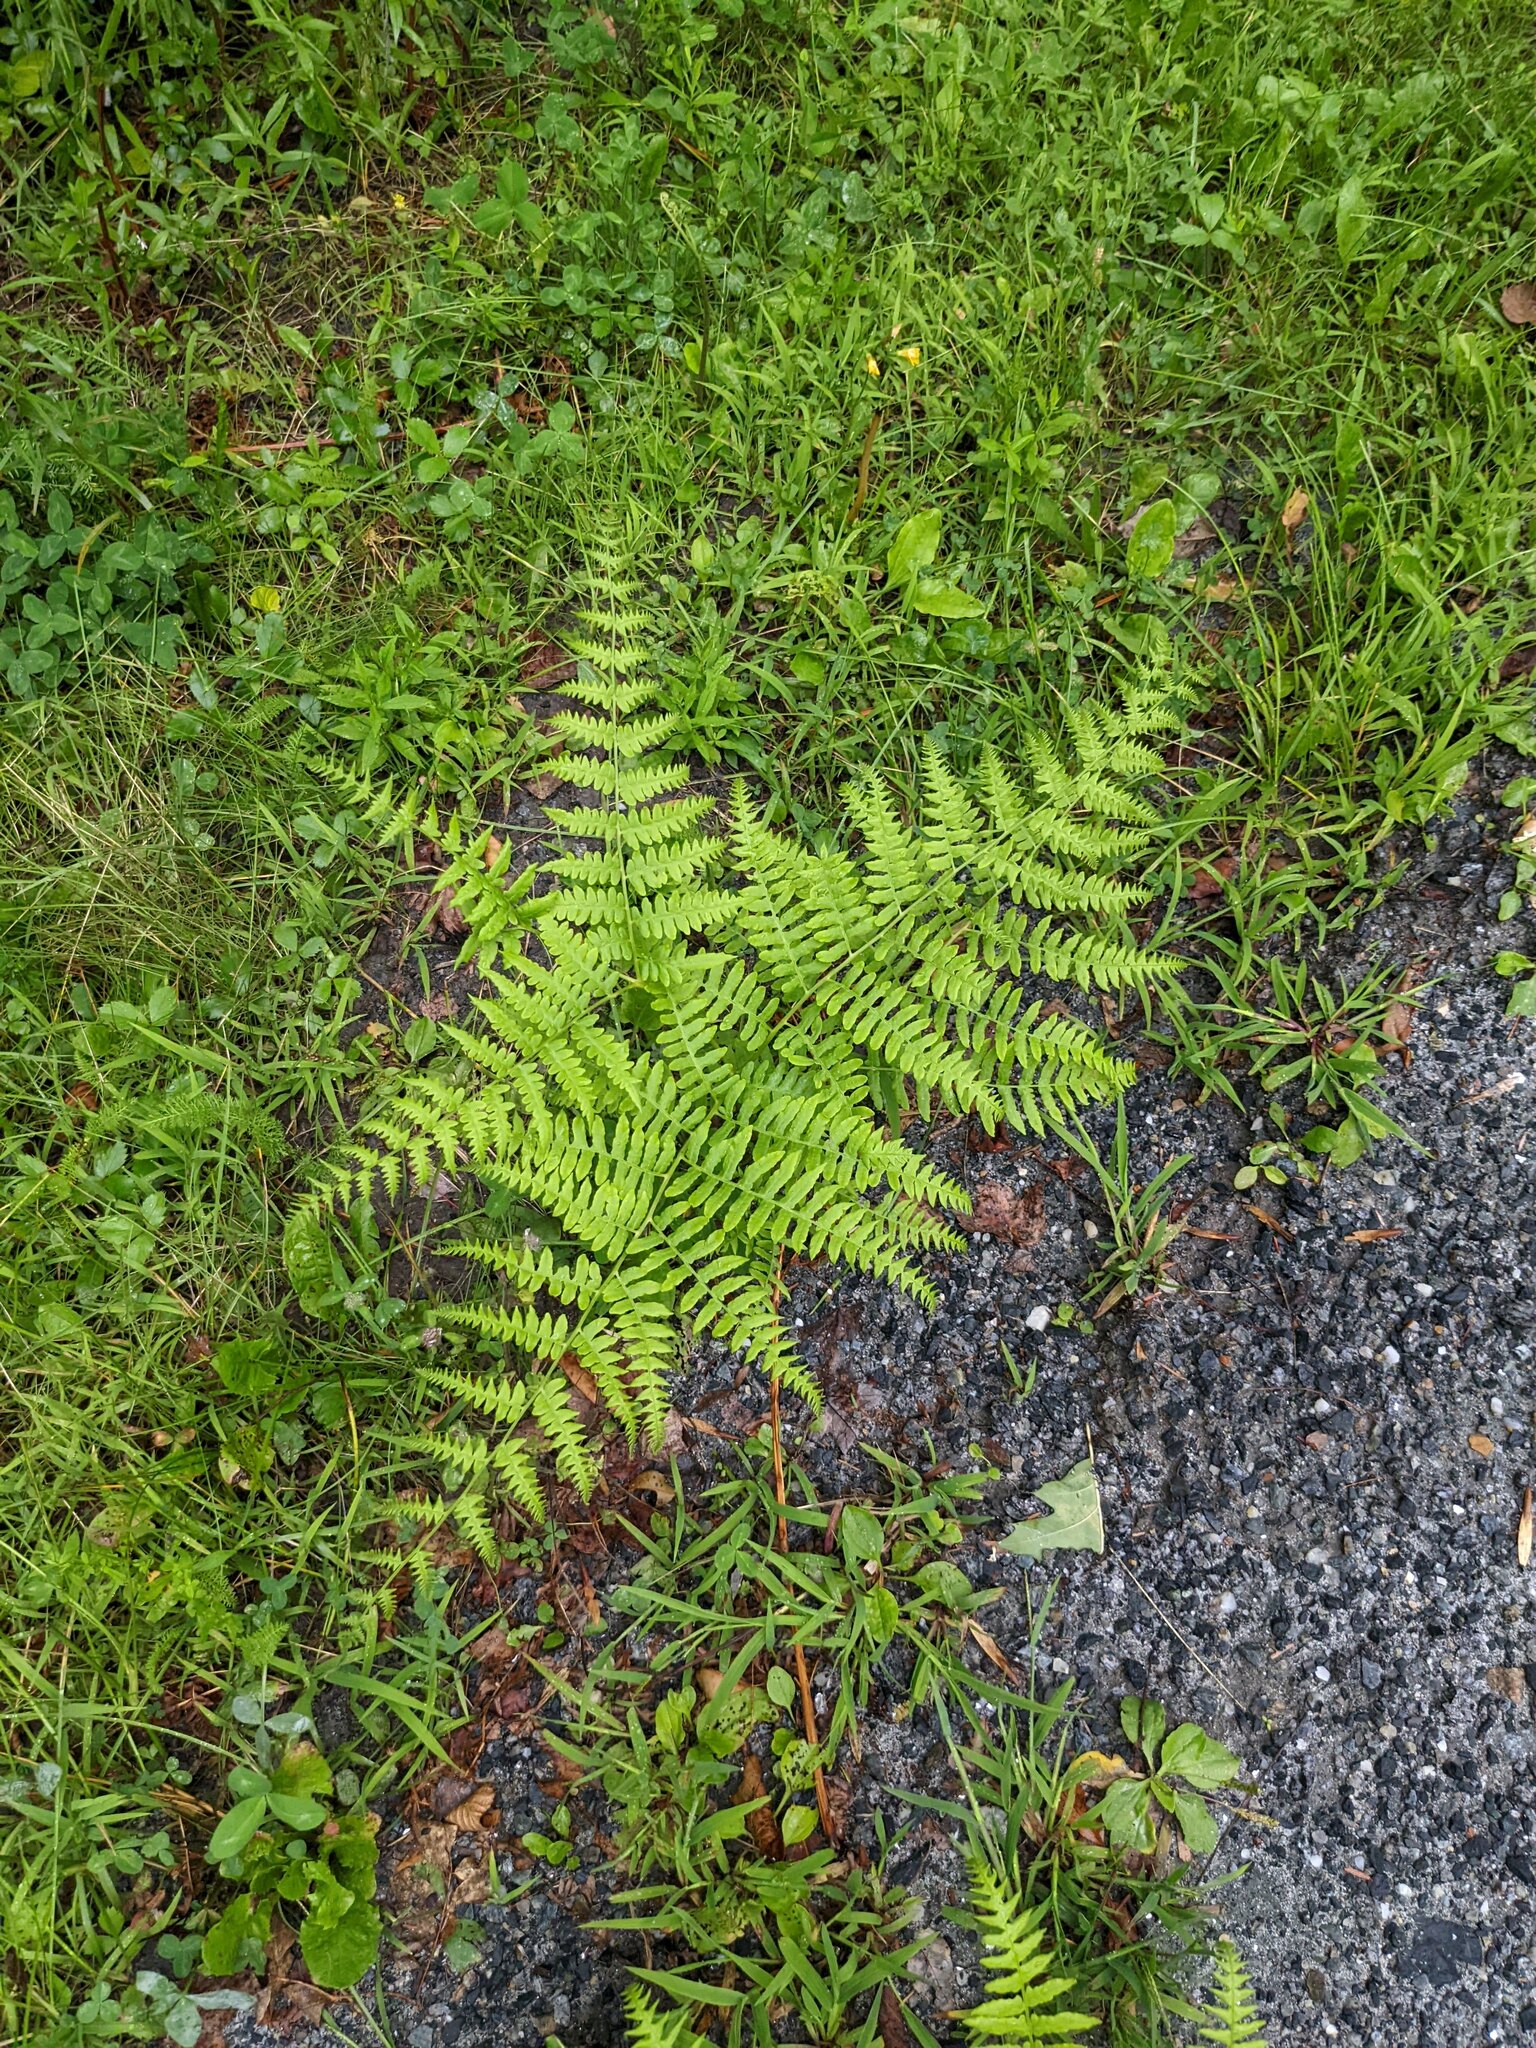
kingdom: Plantae
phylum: Tracheophyta
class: Polypodiopsida
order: Polypodiales
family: Dennstaedtiaceae
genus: Pteridium
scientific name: Pteridium aquilinum
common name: Bracken
